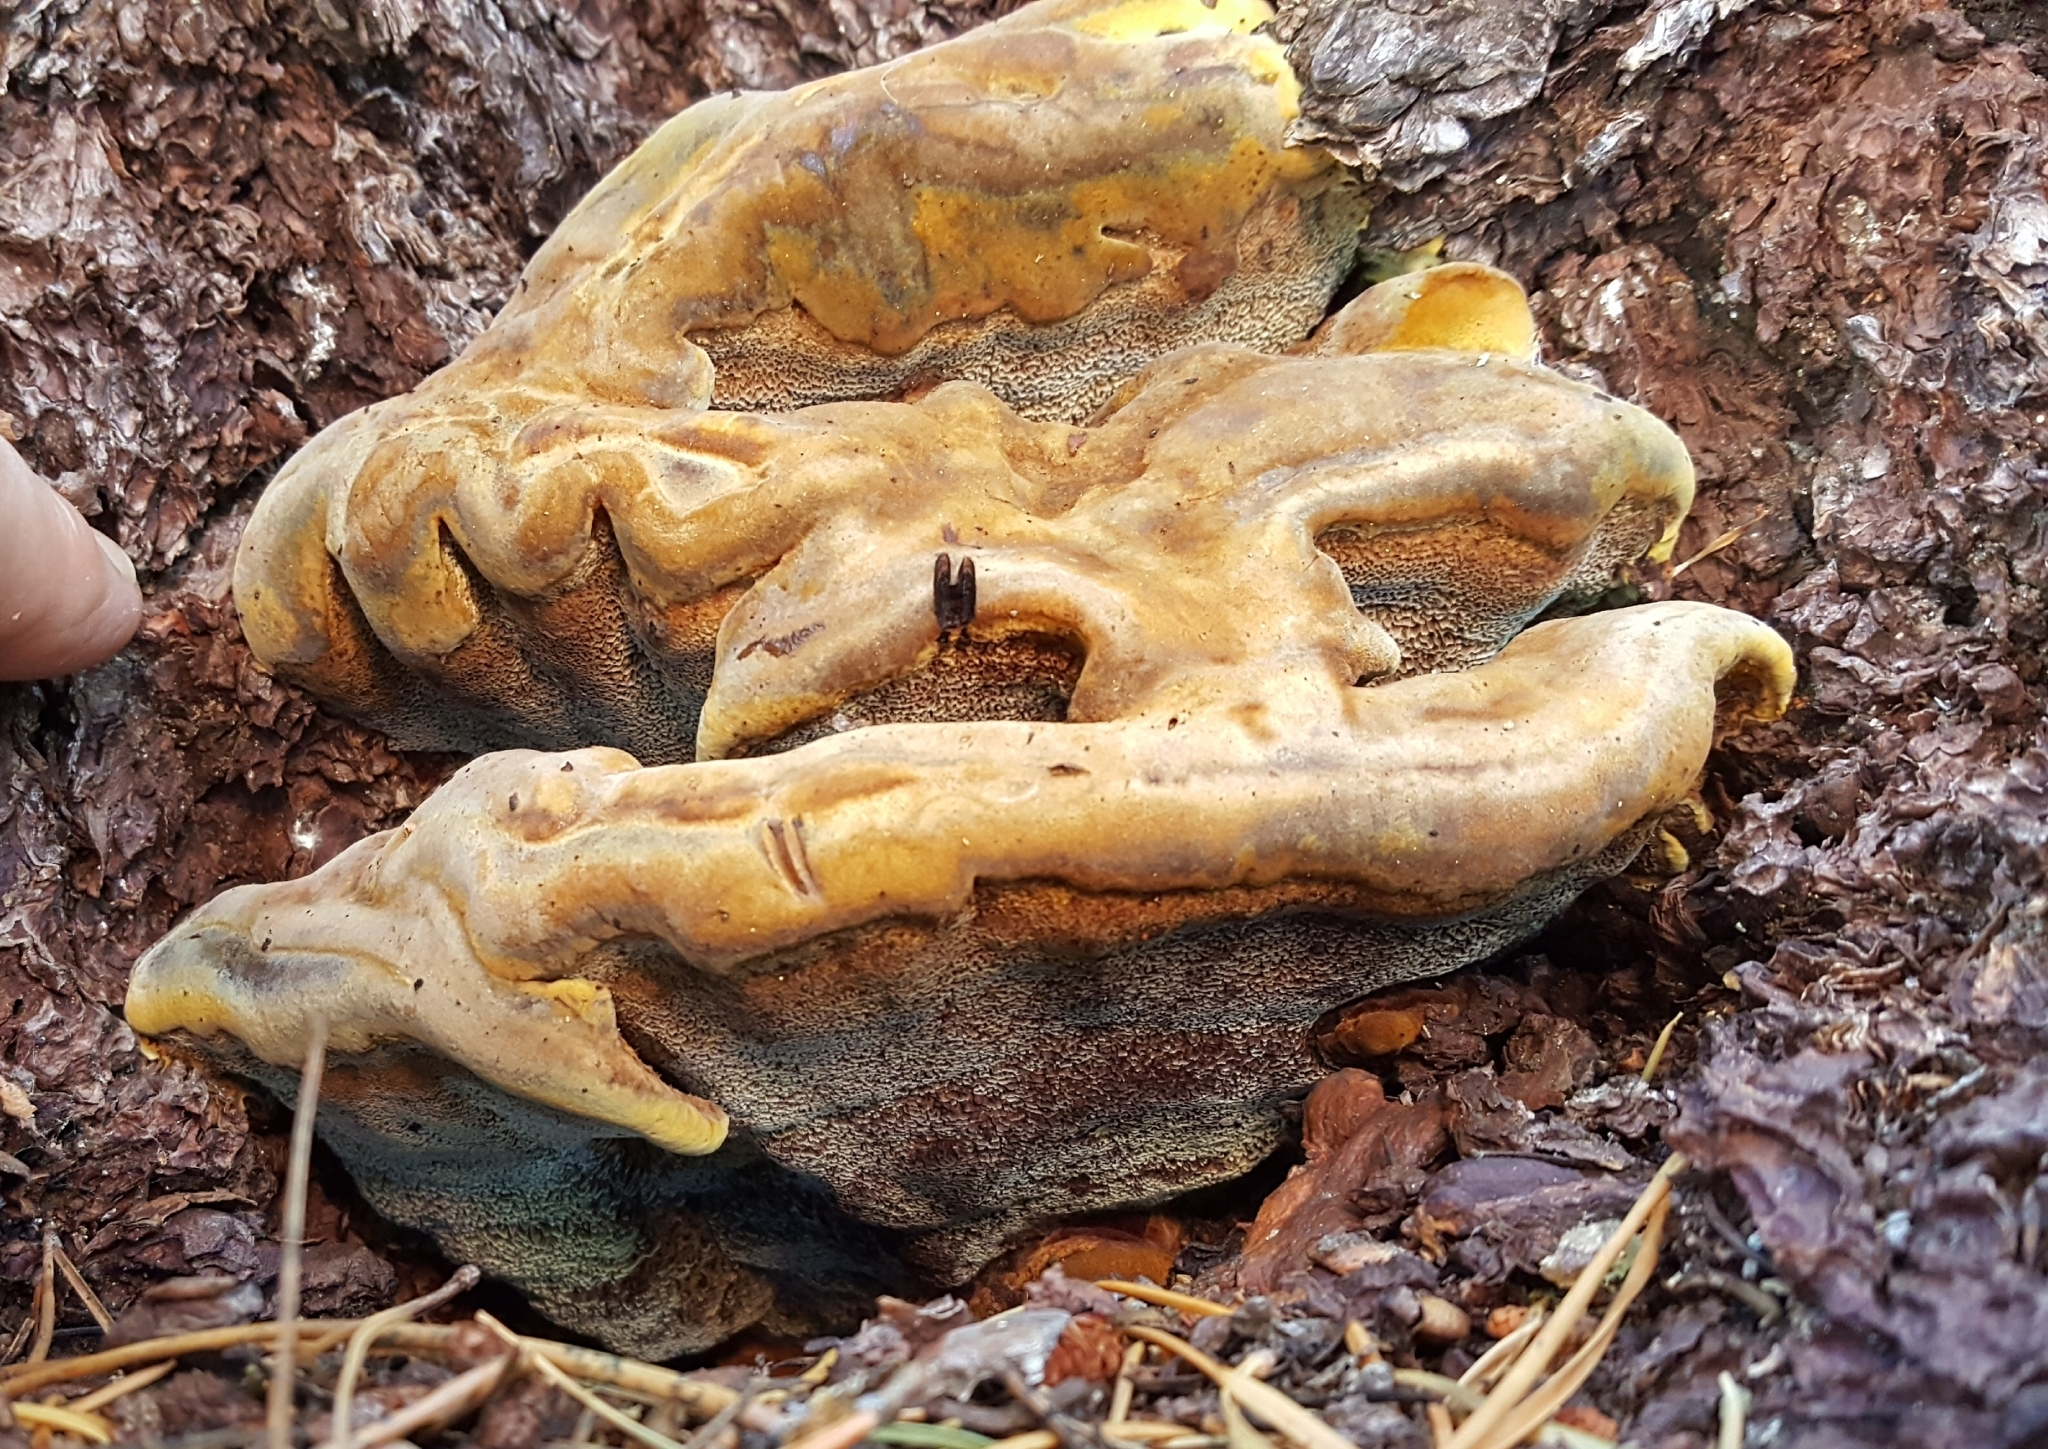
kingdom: Fungi
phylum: Basidiomycota
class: Agaricomycetes
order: Polyporales
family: Laetiporaceae
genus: Phaeolus
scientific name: Phaeolus schweinitzii
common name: Dyer's mazegill
